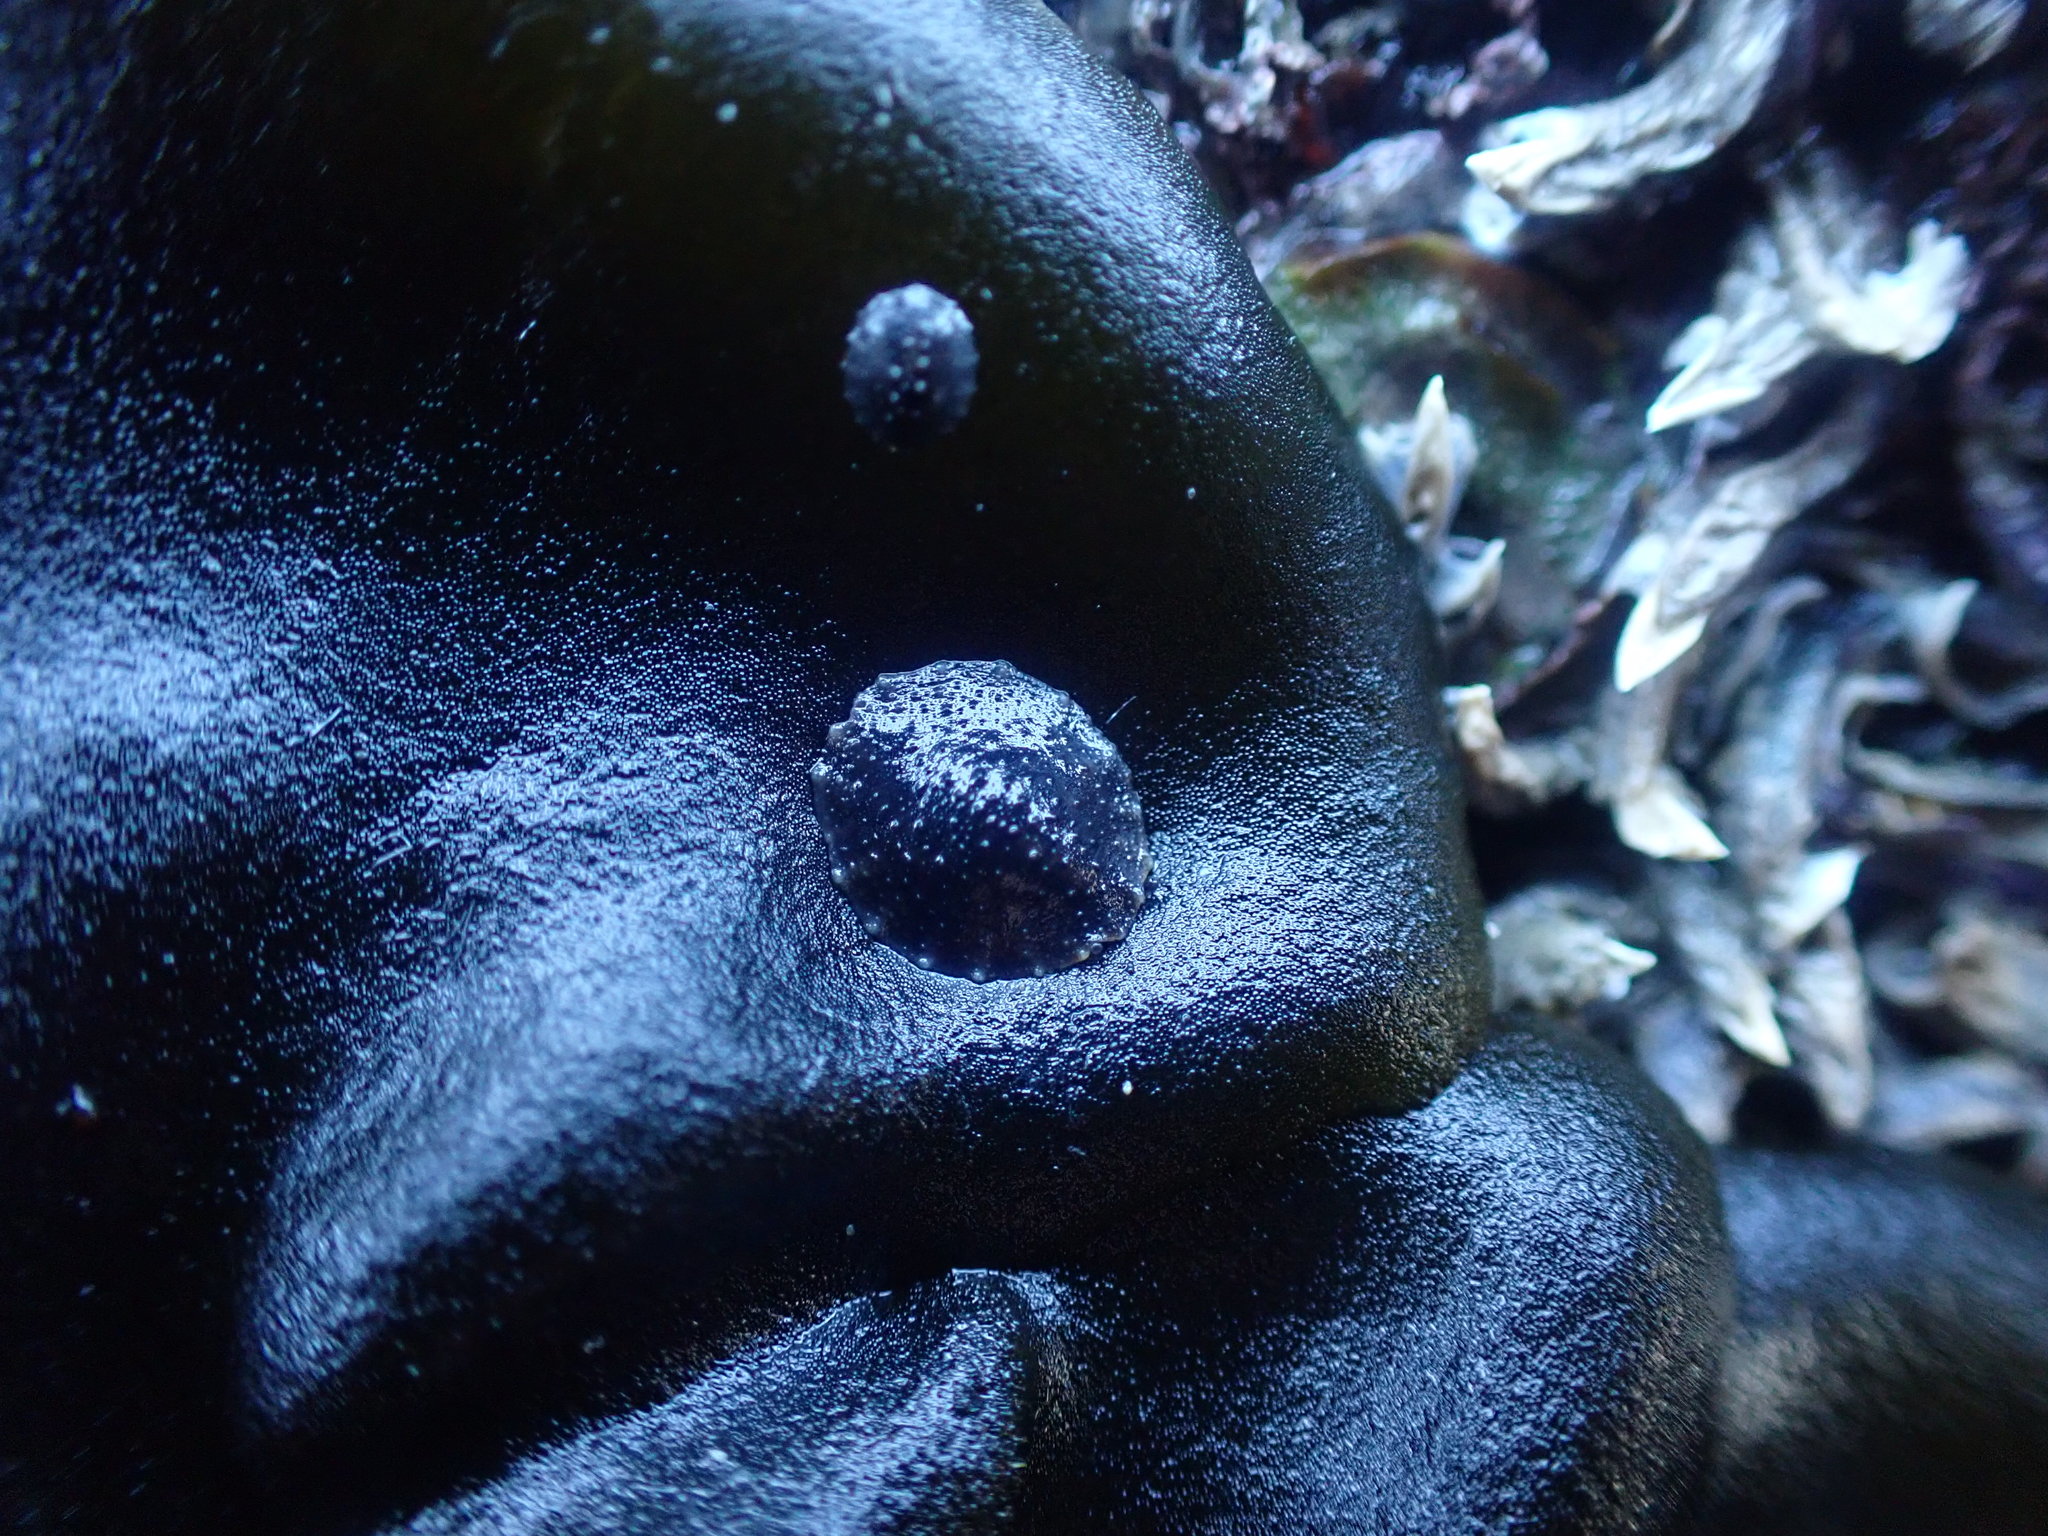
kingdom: Animalia
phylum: Mollusca
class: Gastropoda
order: Systellommatophora
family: Onchidiidae
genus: Onchidella
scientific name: Onchidella nigricans
